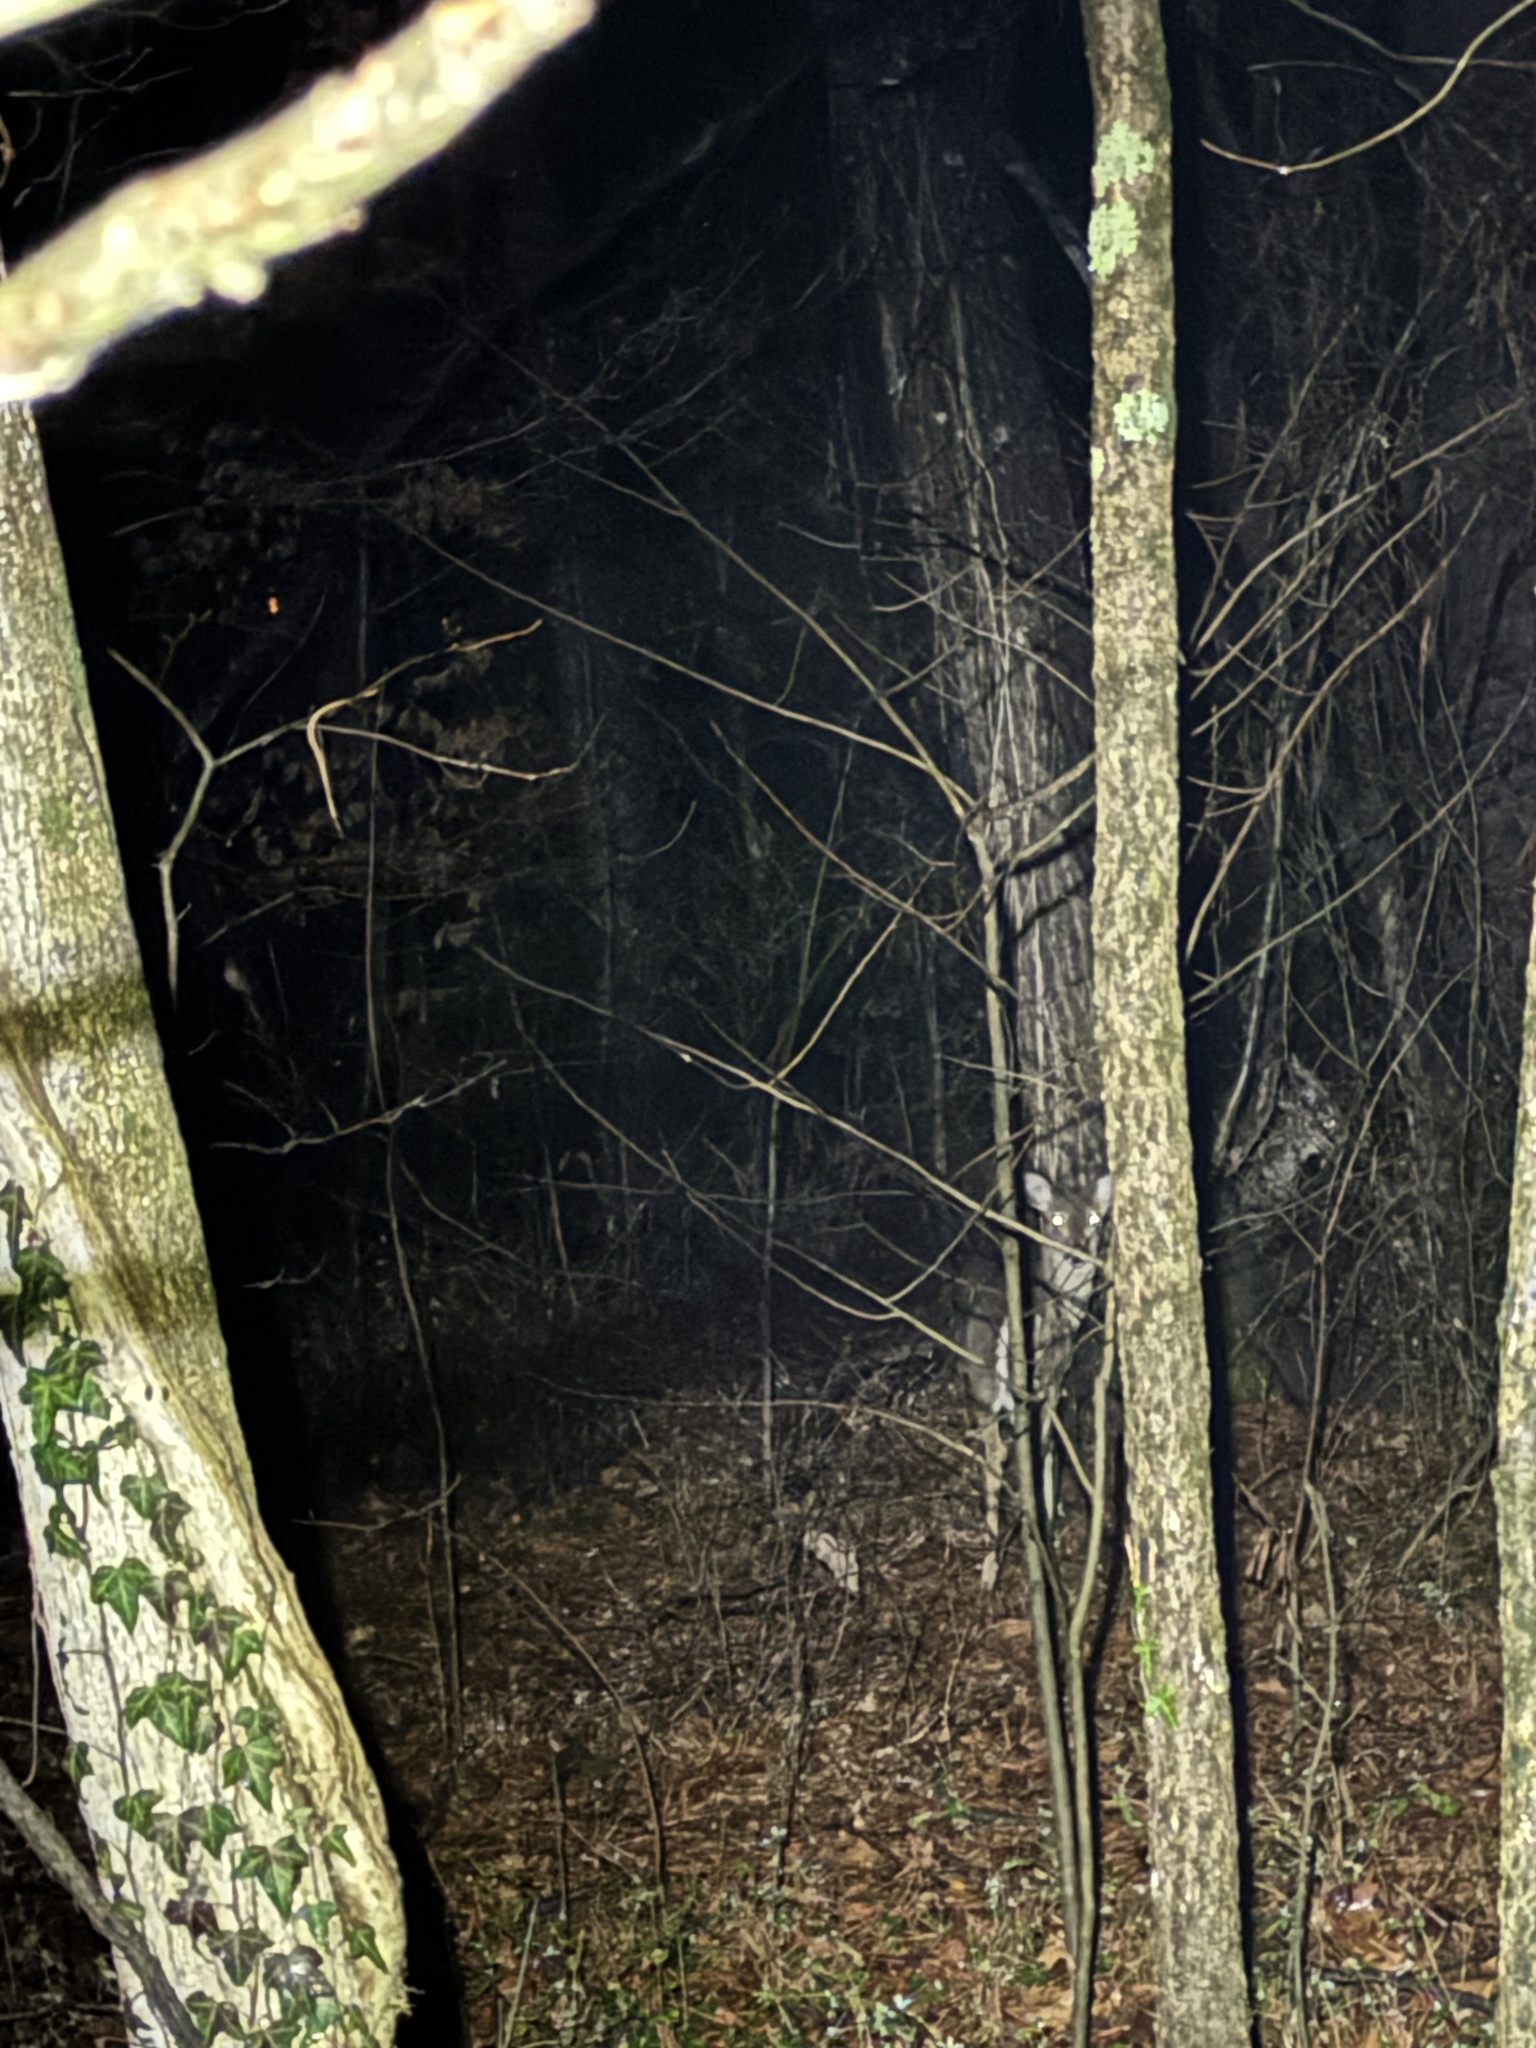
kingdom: Animalia
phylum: Chordata
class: Mammalia
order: Artiodactyla
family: Cervidae
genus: Odocoileus
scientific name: Odocoileus virginianus
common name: White-tailed deer
